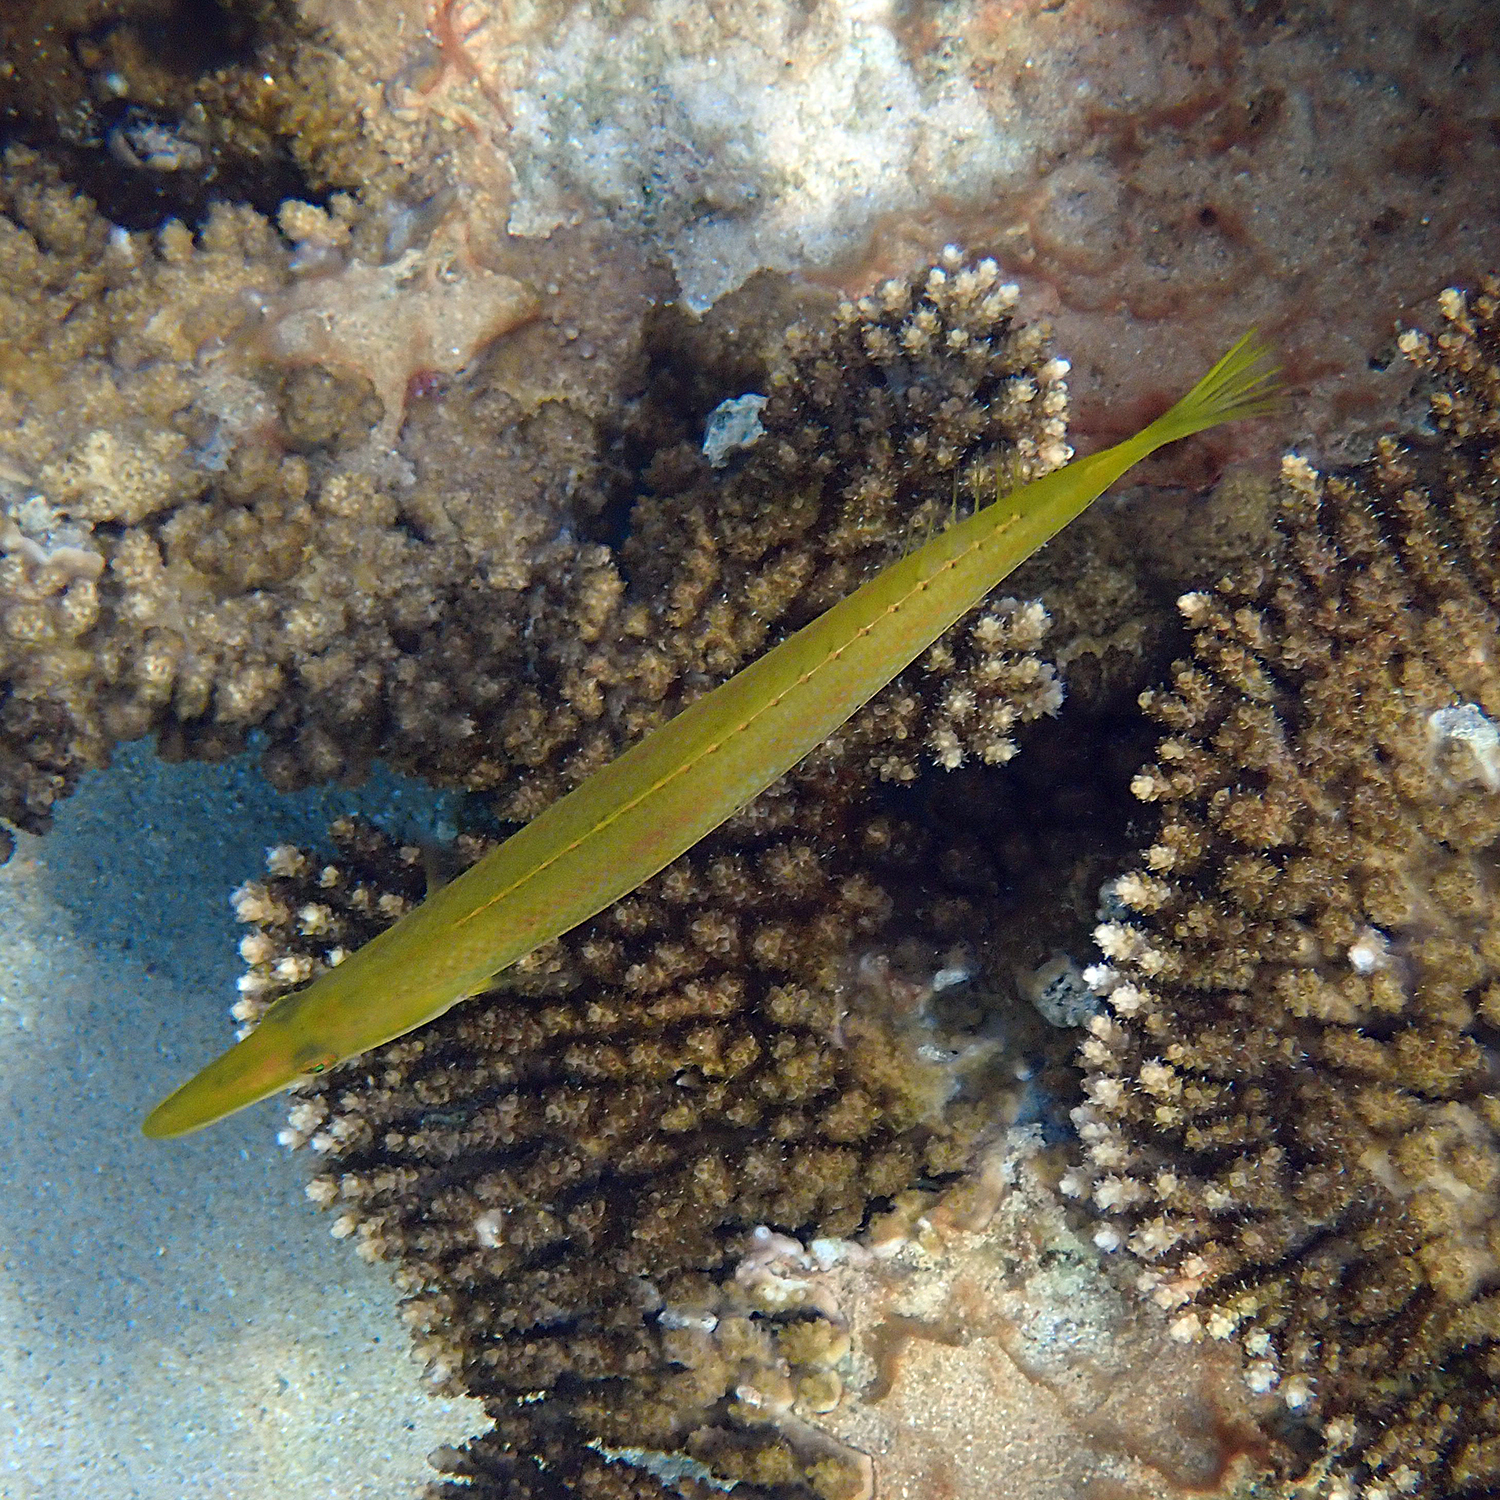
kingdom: Animalia
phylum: Chordata
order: Perciformes
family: Labridae
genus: Cheilio
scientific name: Cheilio inermis
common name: Cigar wrasse
